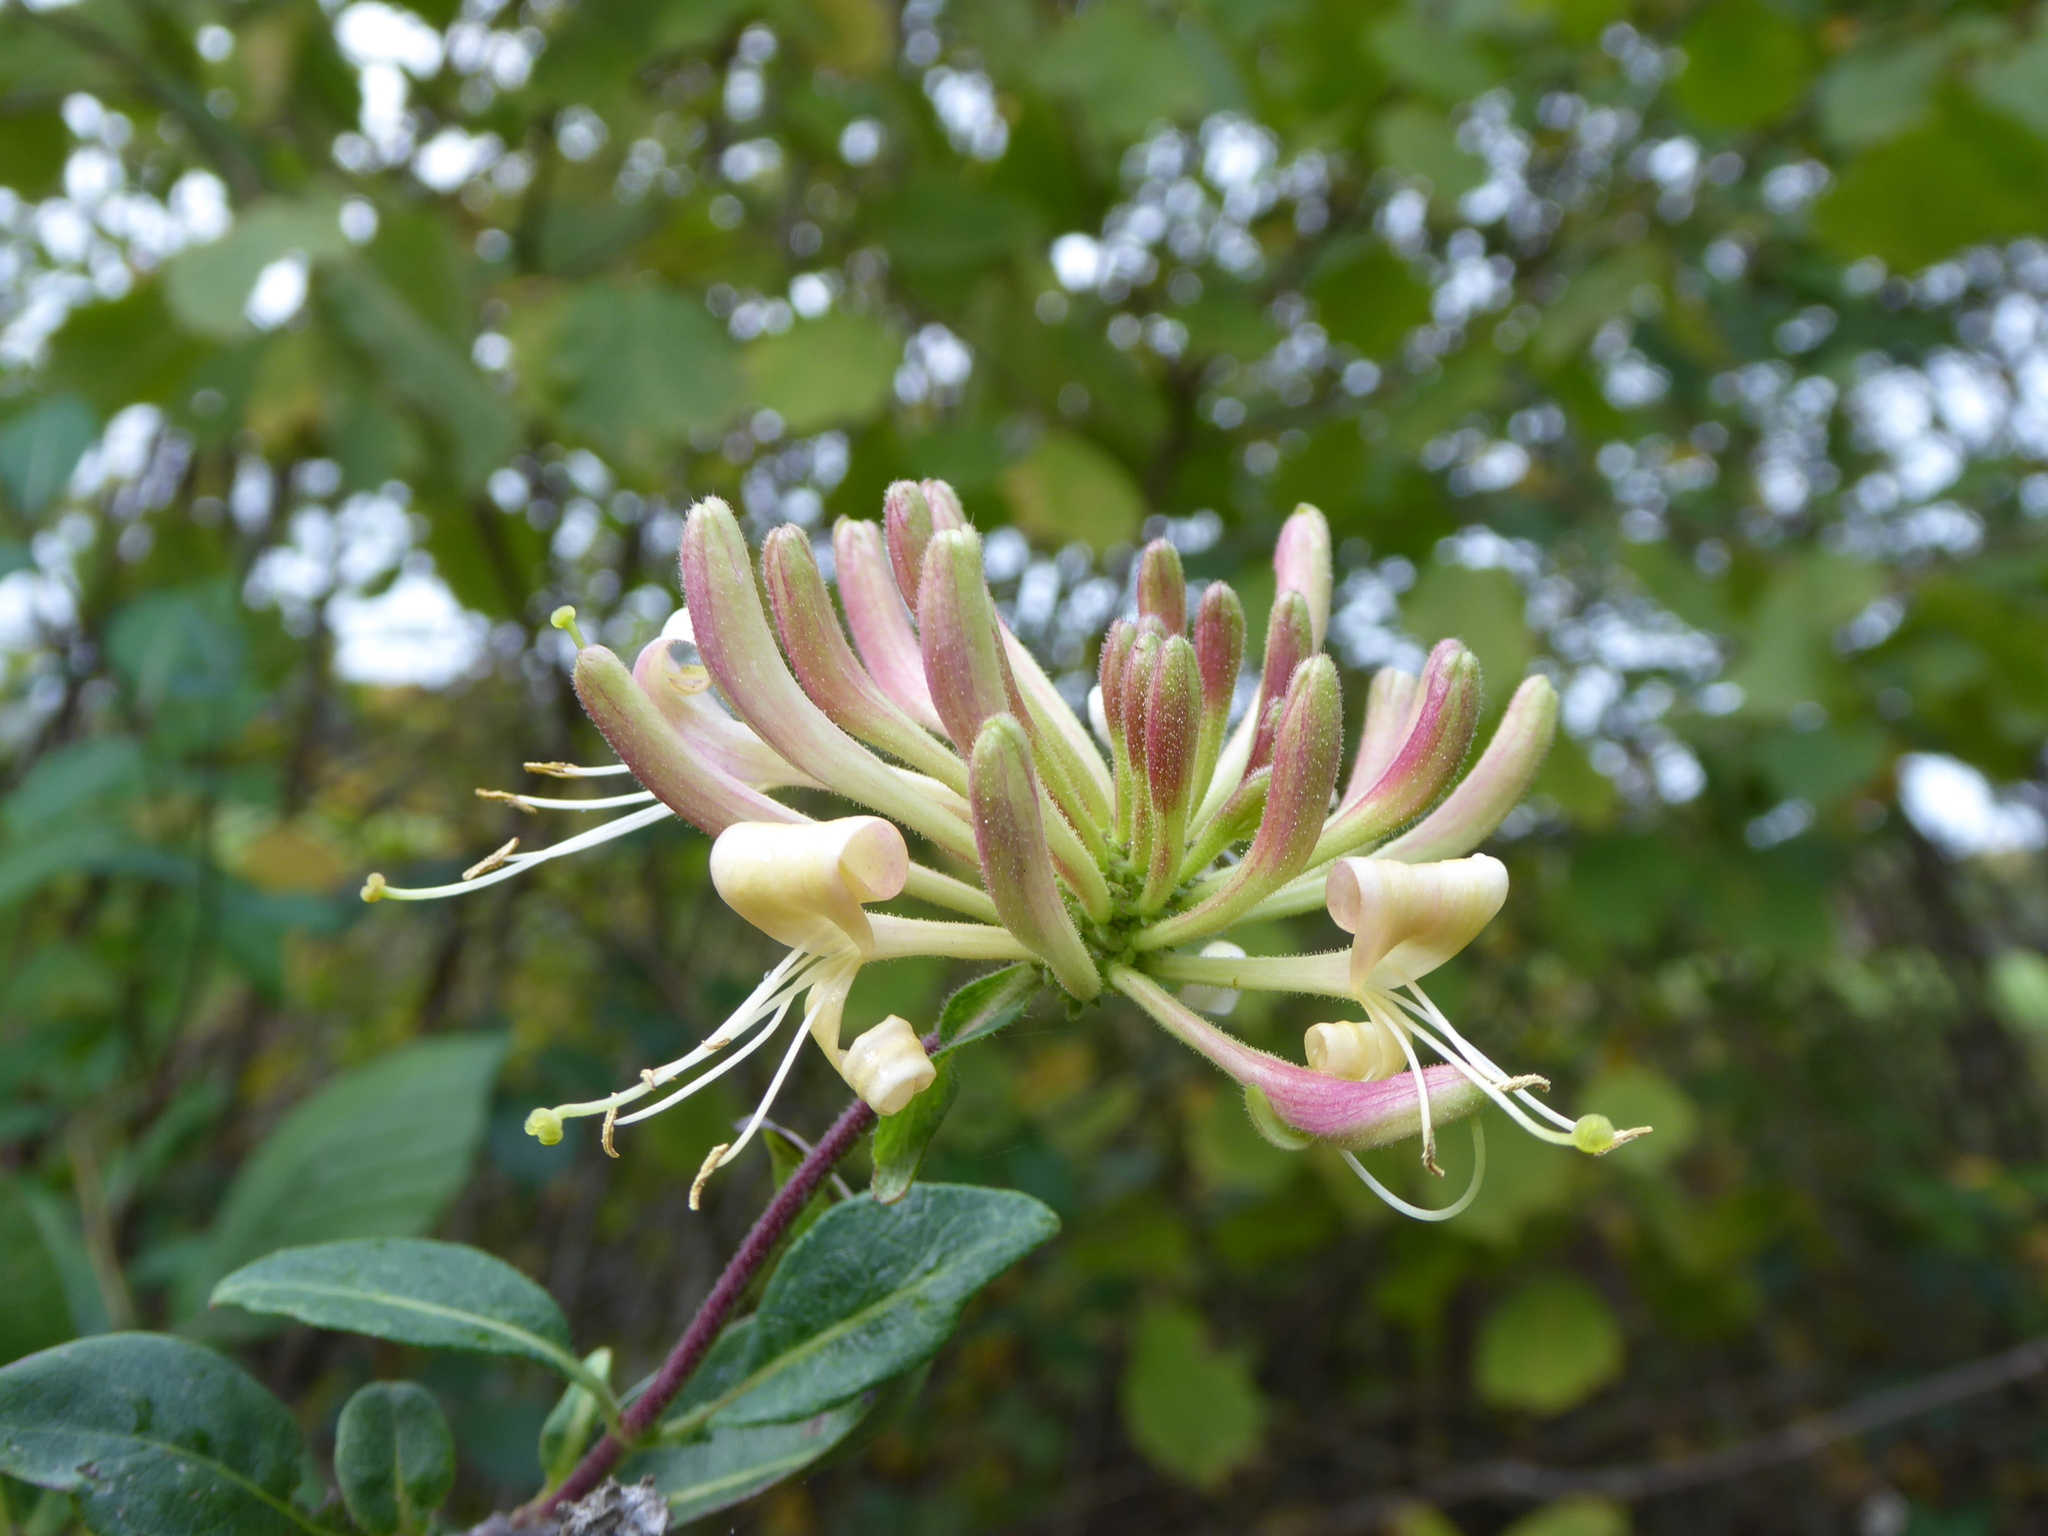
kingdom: Plantae
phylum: Tracheophyta
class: Magnoliopsida
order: Dipsacales
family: Caprifoliaceae
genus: Lonicera
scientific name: Lonicera periclymenum
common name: European honeysuckle
